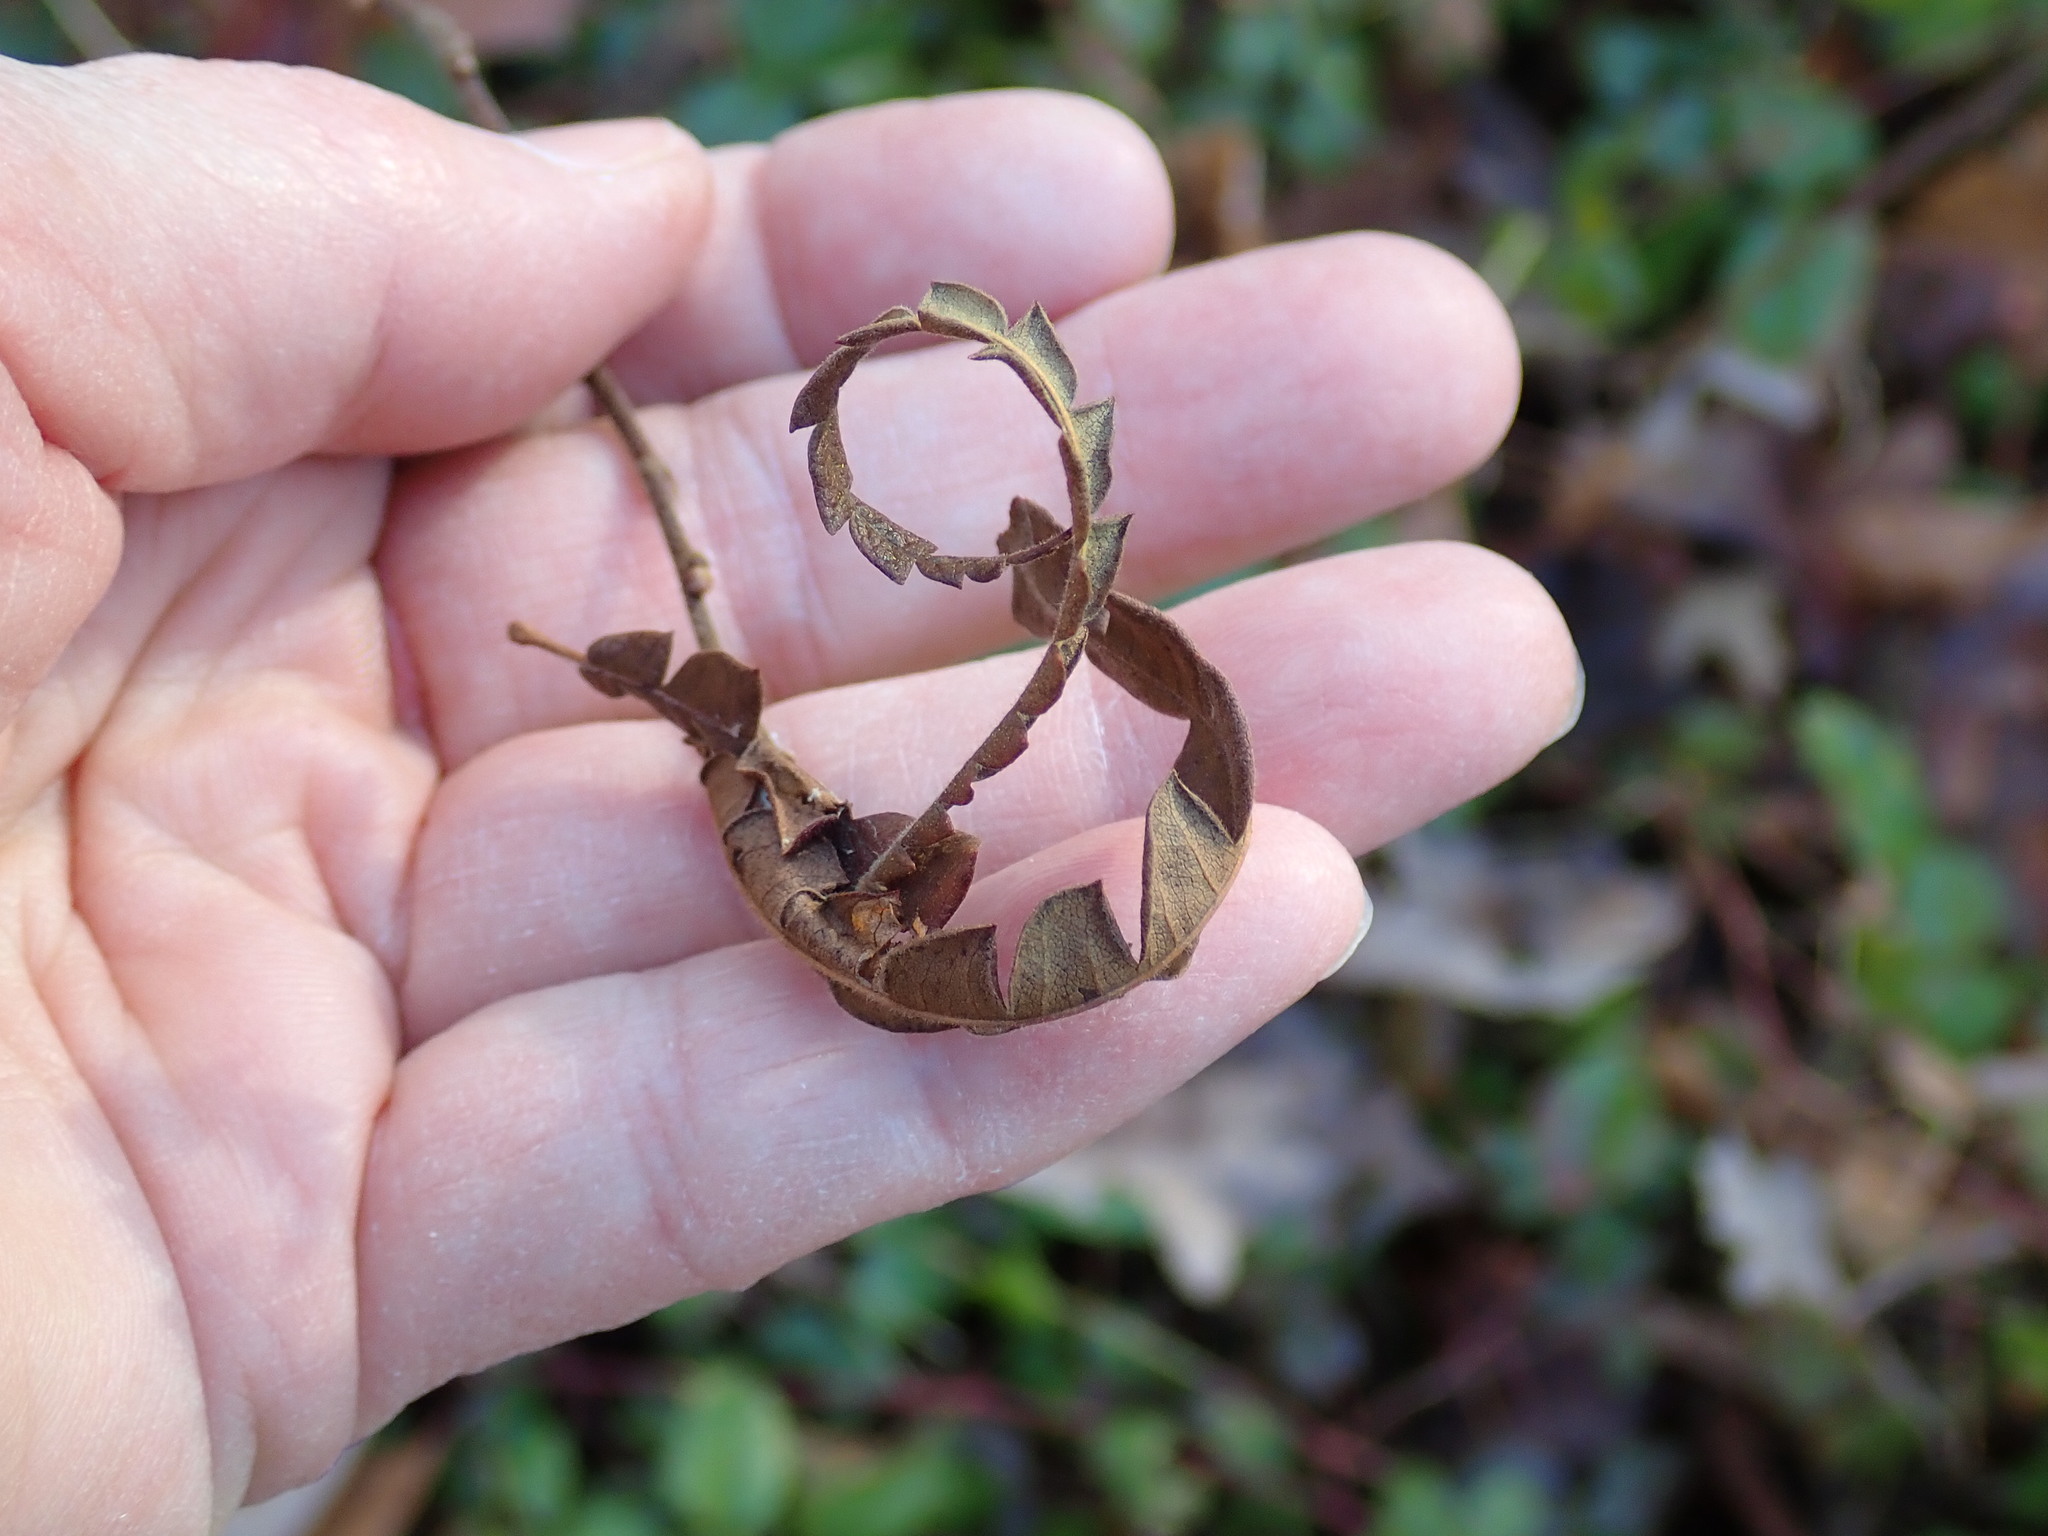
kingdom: Plantae
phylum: Tracheophyta
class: Magnoliopsida
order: Fagales
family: Myricaceae
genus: Comptonia
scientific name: Comptonia peregrina
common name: Sweet-fern
